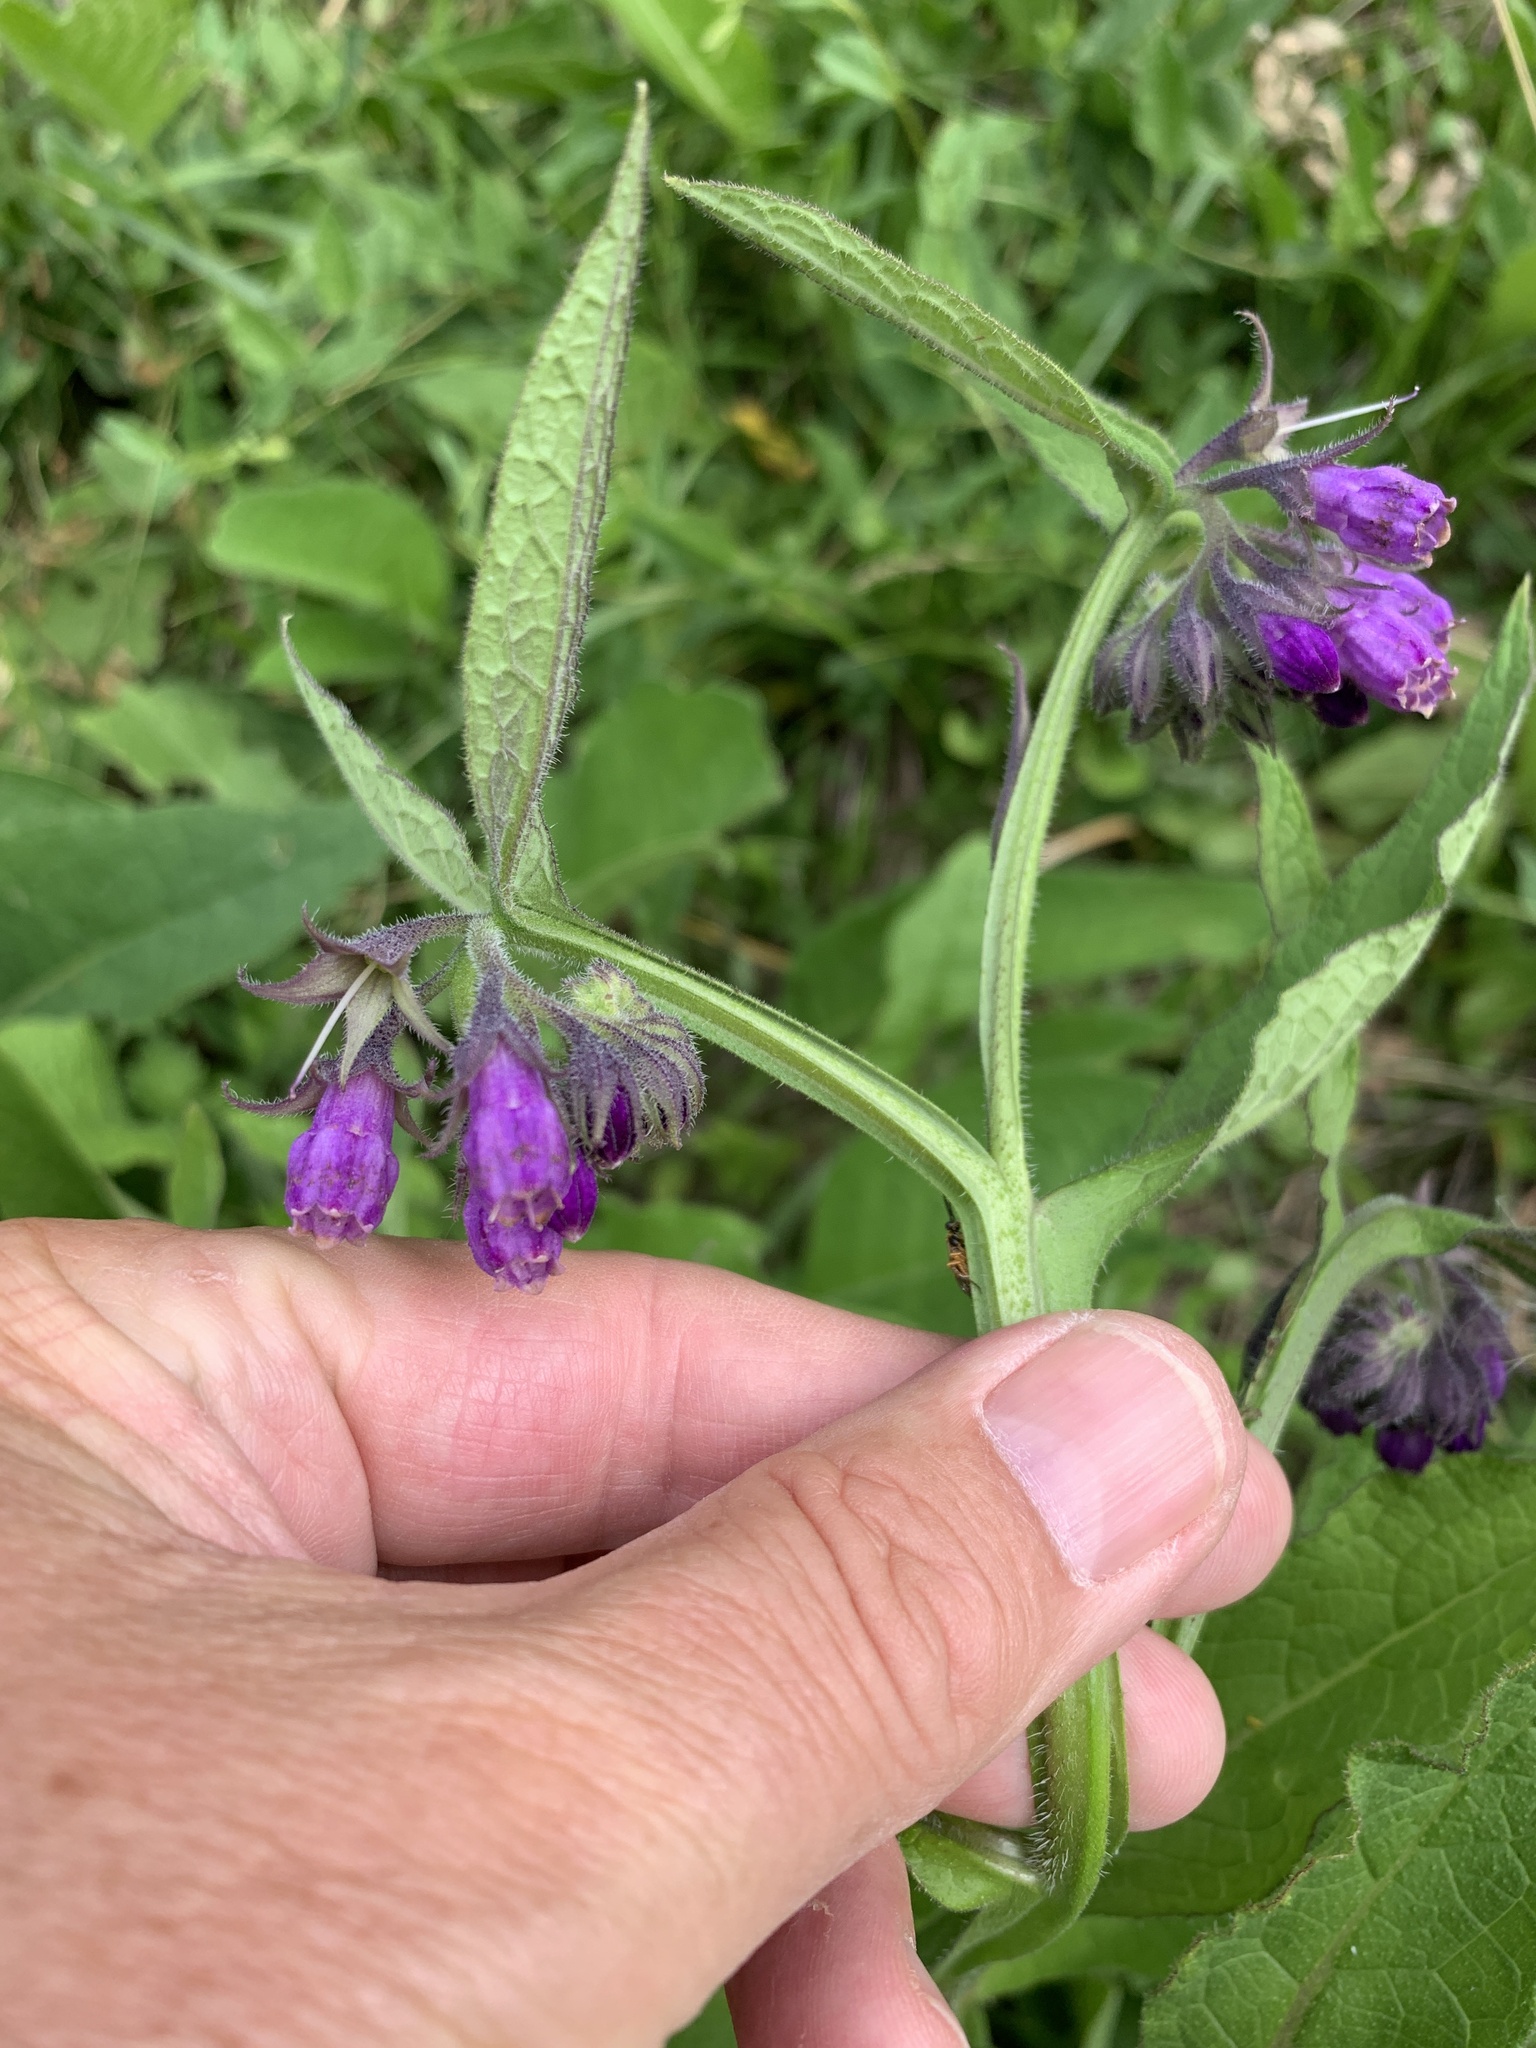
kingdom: Plantae
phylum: Tracheophyta
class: Magnoliopsida
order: Boraginales
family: Boraginaceae
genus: Symphytum
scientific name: Symphytum officinale
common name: Common comfrey
